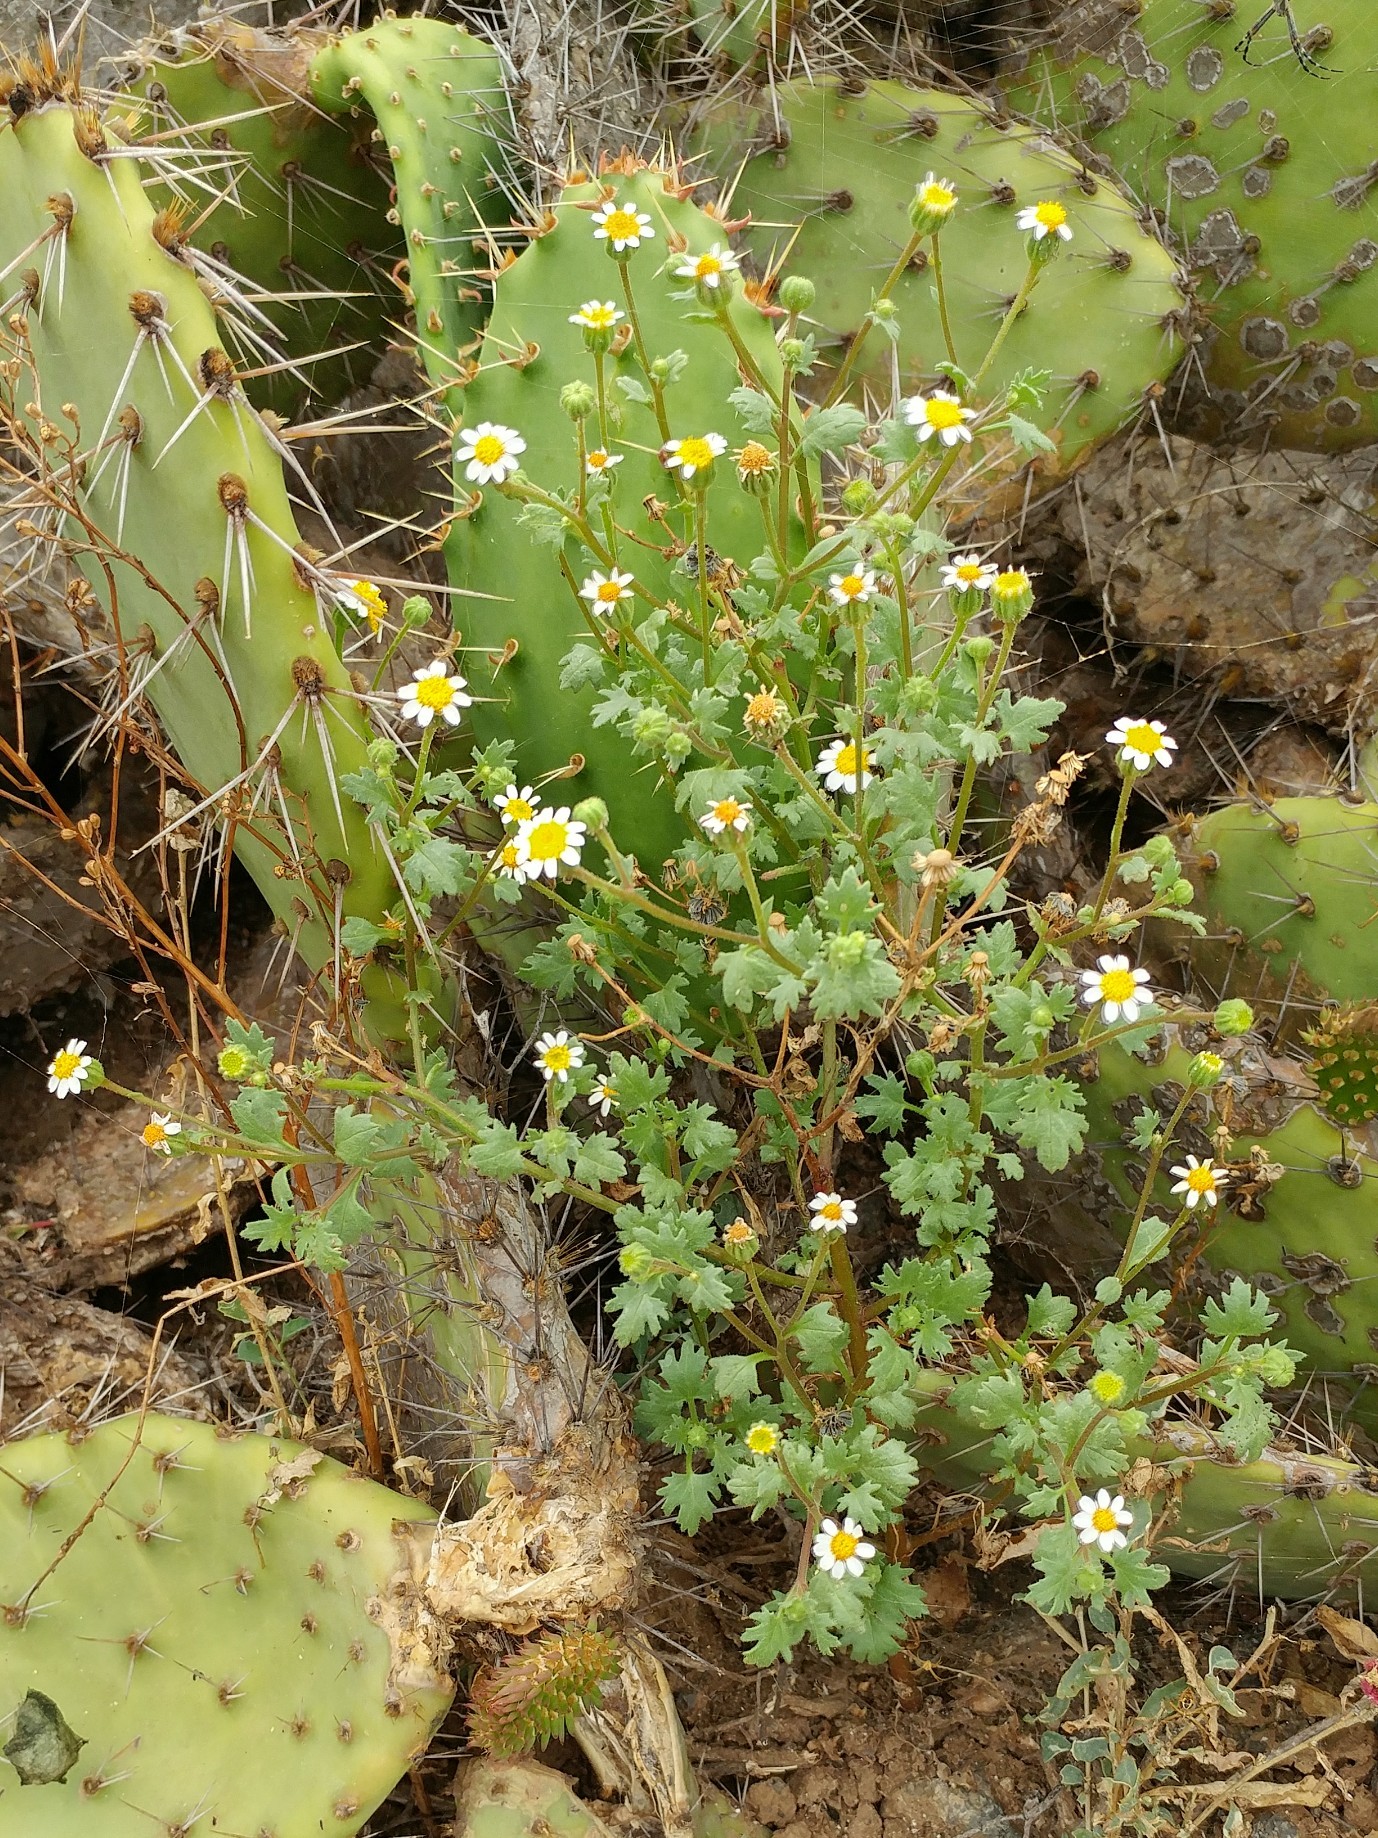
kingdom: Plantae
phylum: Tracheophyta
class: Magnoliopsida
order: Asterales
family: Asteraceae
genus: Laphamia
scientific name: Laphamia emoryi
